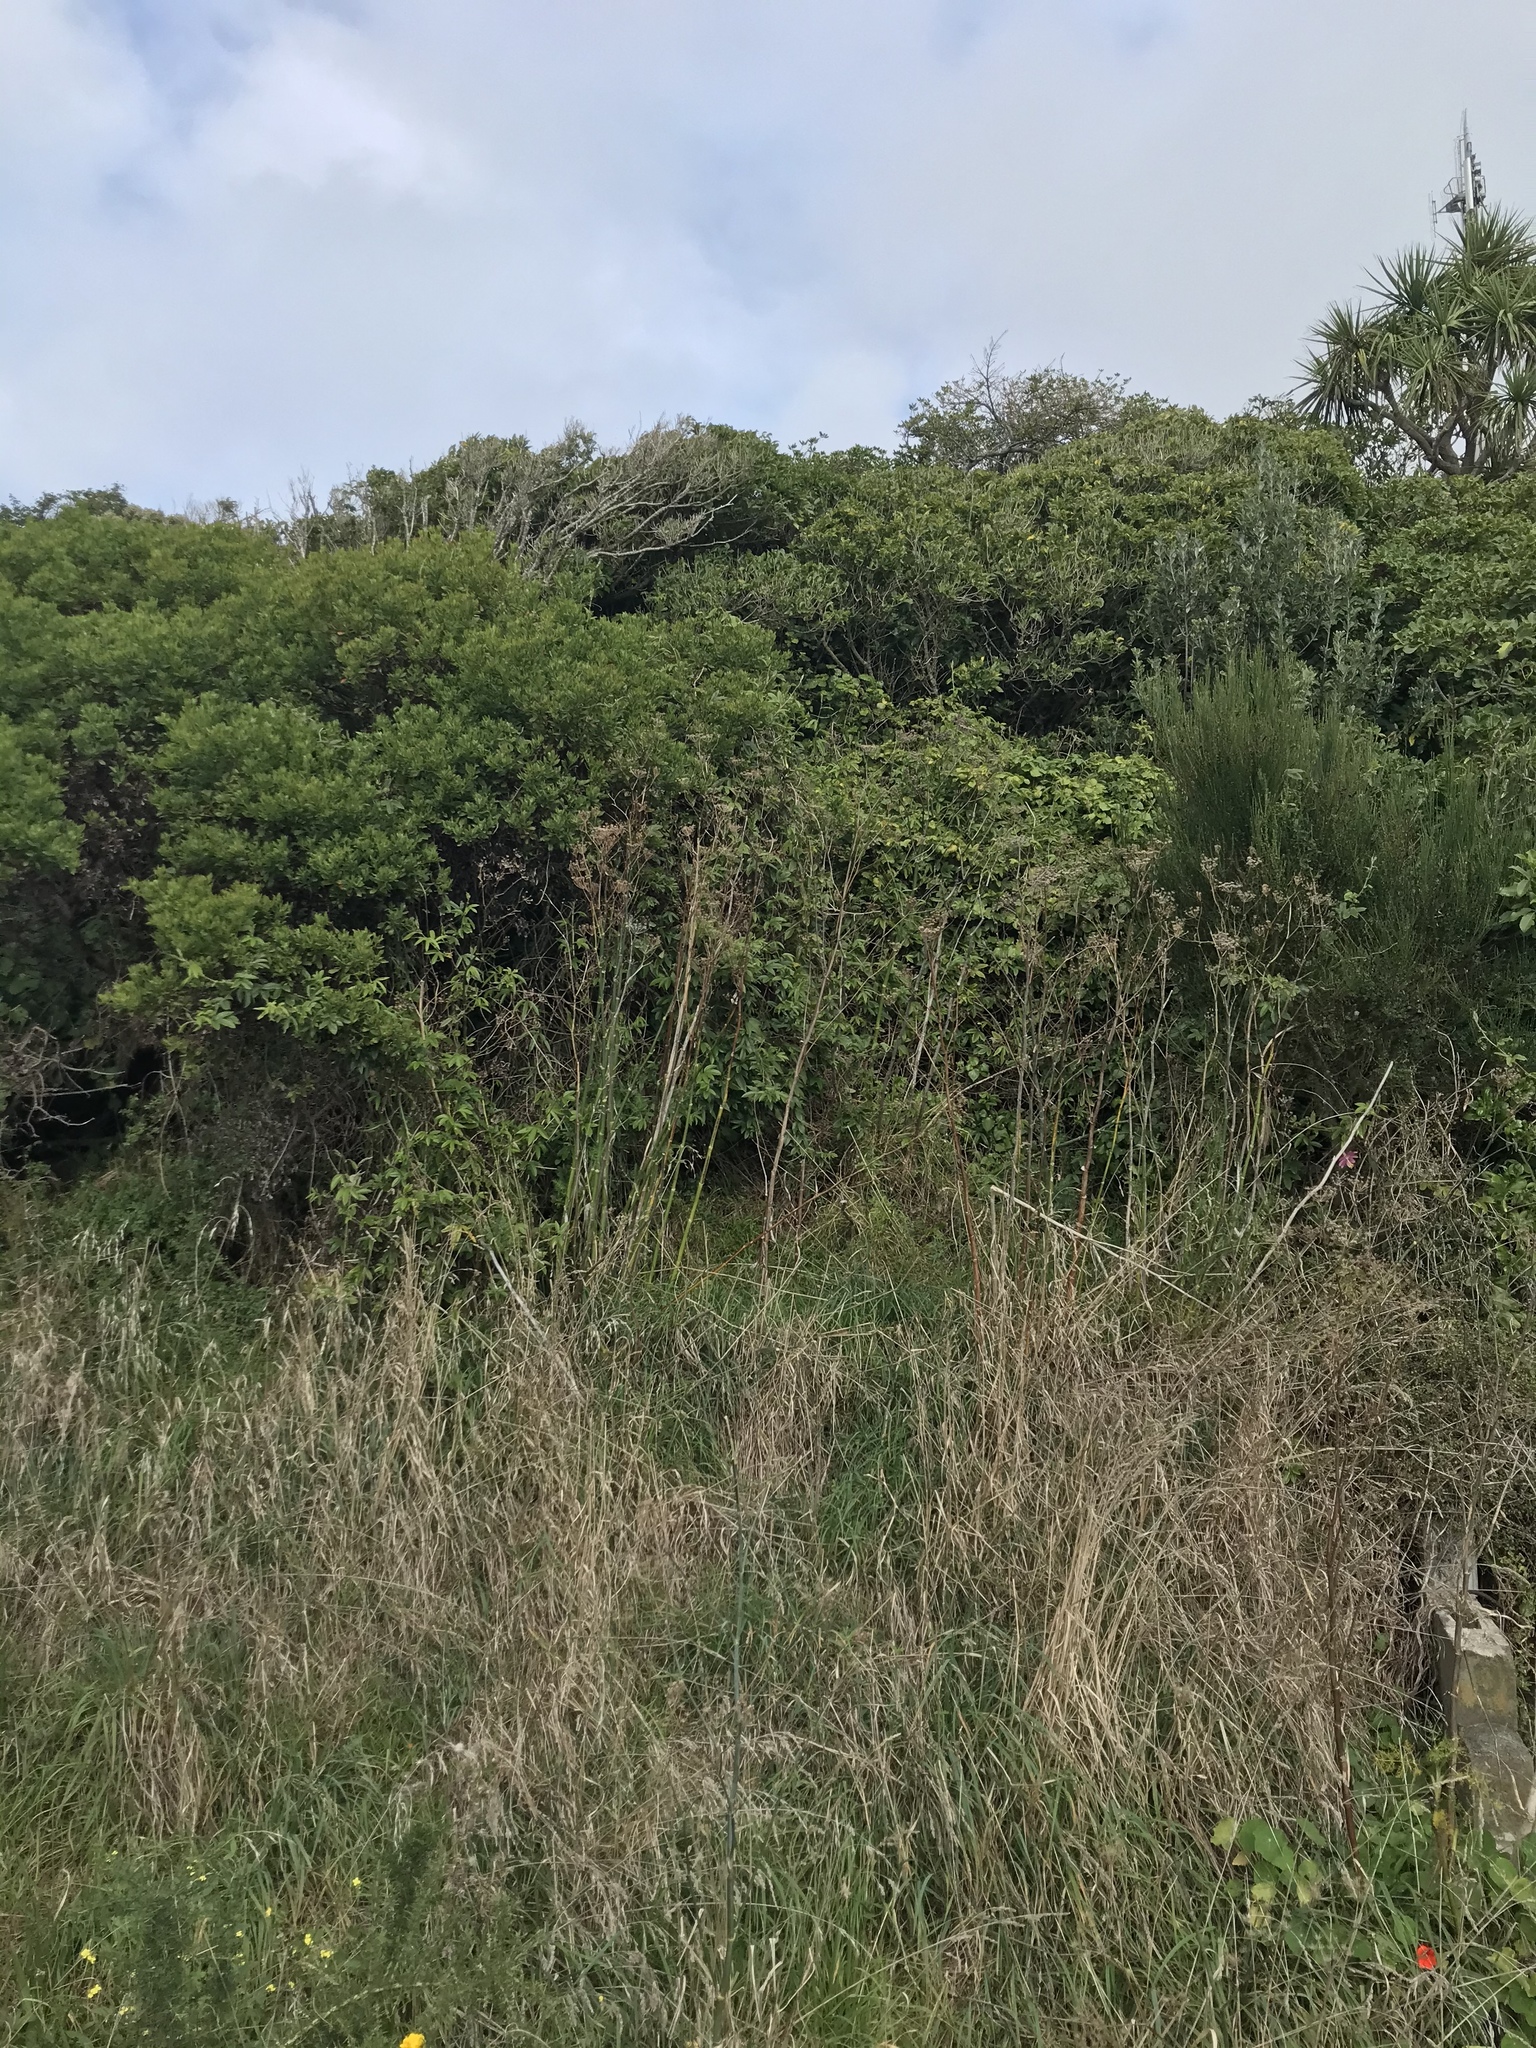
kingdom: Plantae
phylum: Tracheophyta
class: Magnoliopsida
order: Malpighiales
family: Passifloraceae
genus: Passiflora
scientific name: Passiflora tripartita
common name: Banana poka
